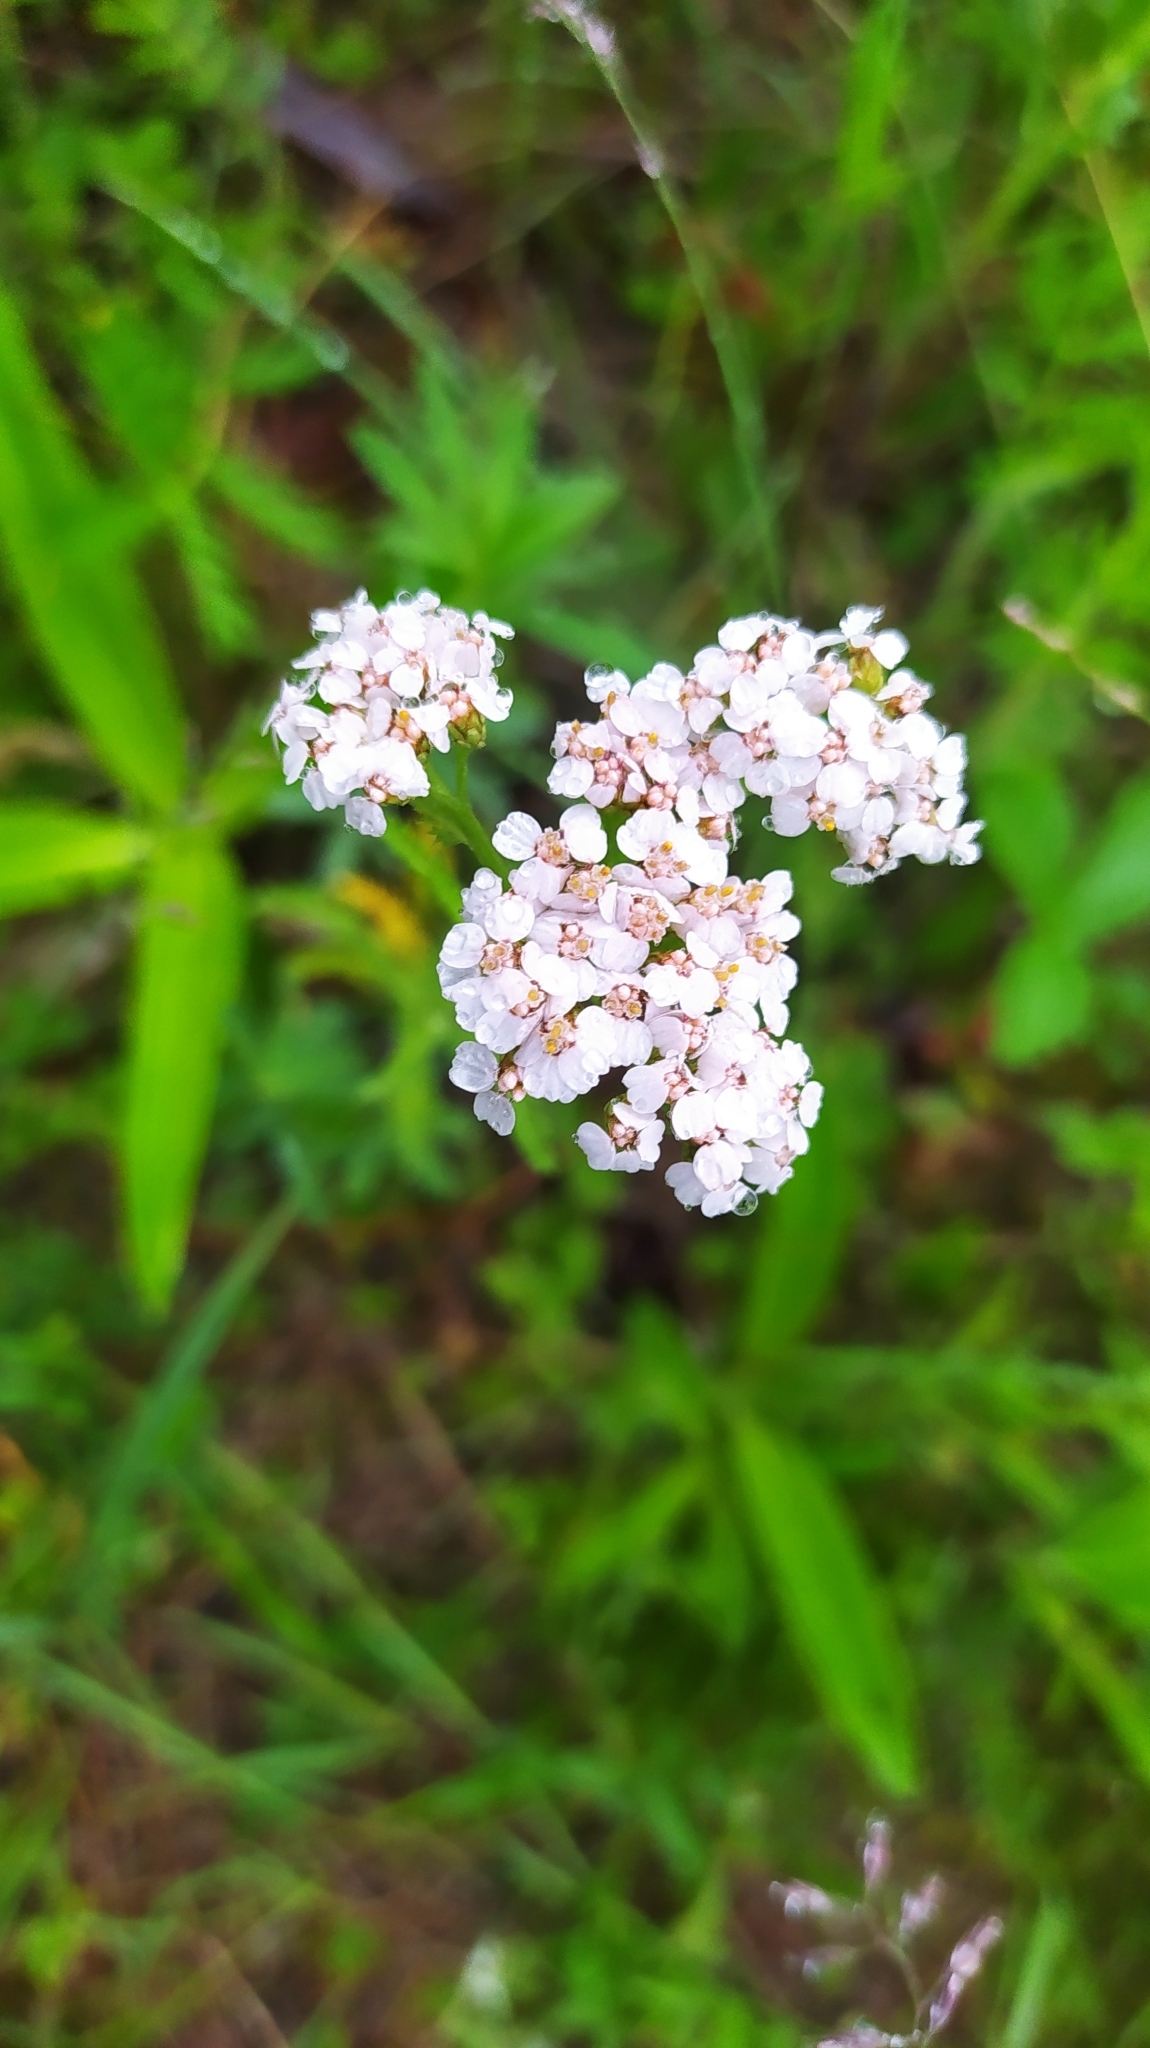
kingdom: Plantae
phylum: Tracheophyta
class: Magnoliopsida
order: Asterales
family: Asteraceae
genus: Achillea
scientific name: Achillea asiatica
